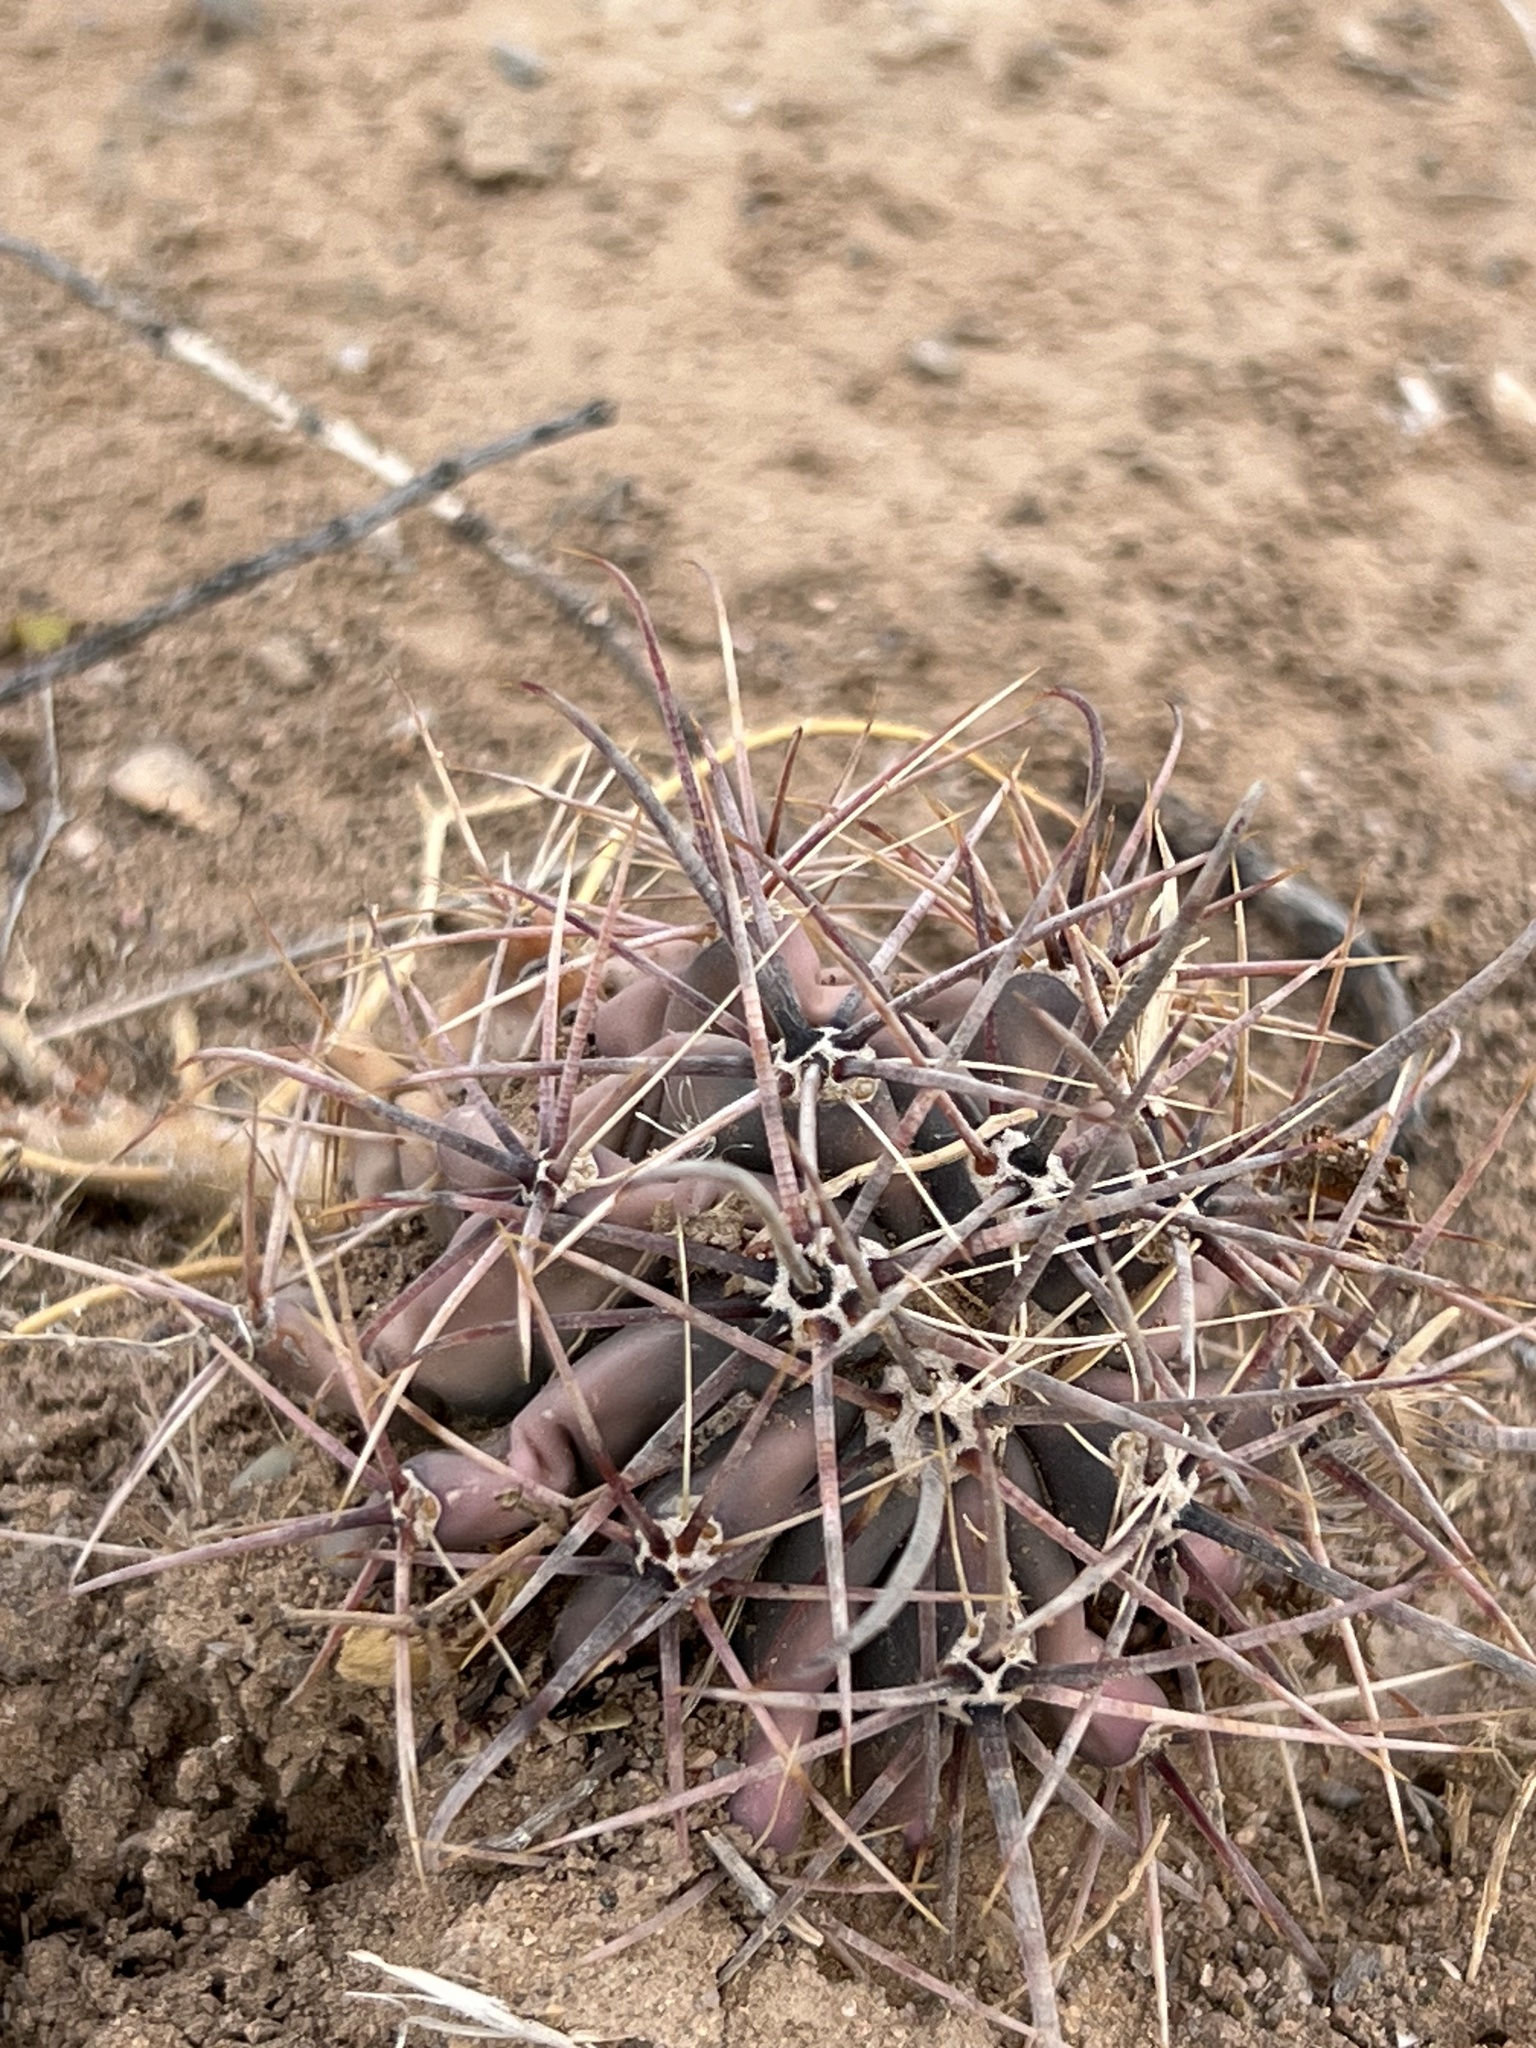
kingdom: Plantae
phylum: Tracheophyta
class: Magnoliopsida
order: Caryophyllales
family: Cactaceae
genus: Ferocactus
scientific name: Ferocactus wislizeni
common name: Candy barrel cactus
